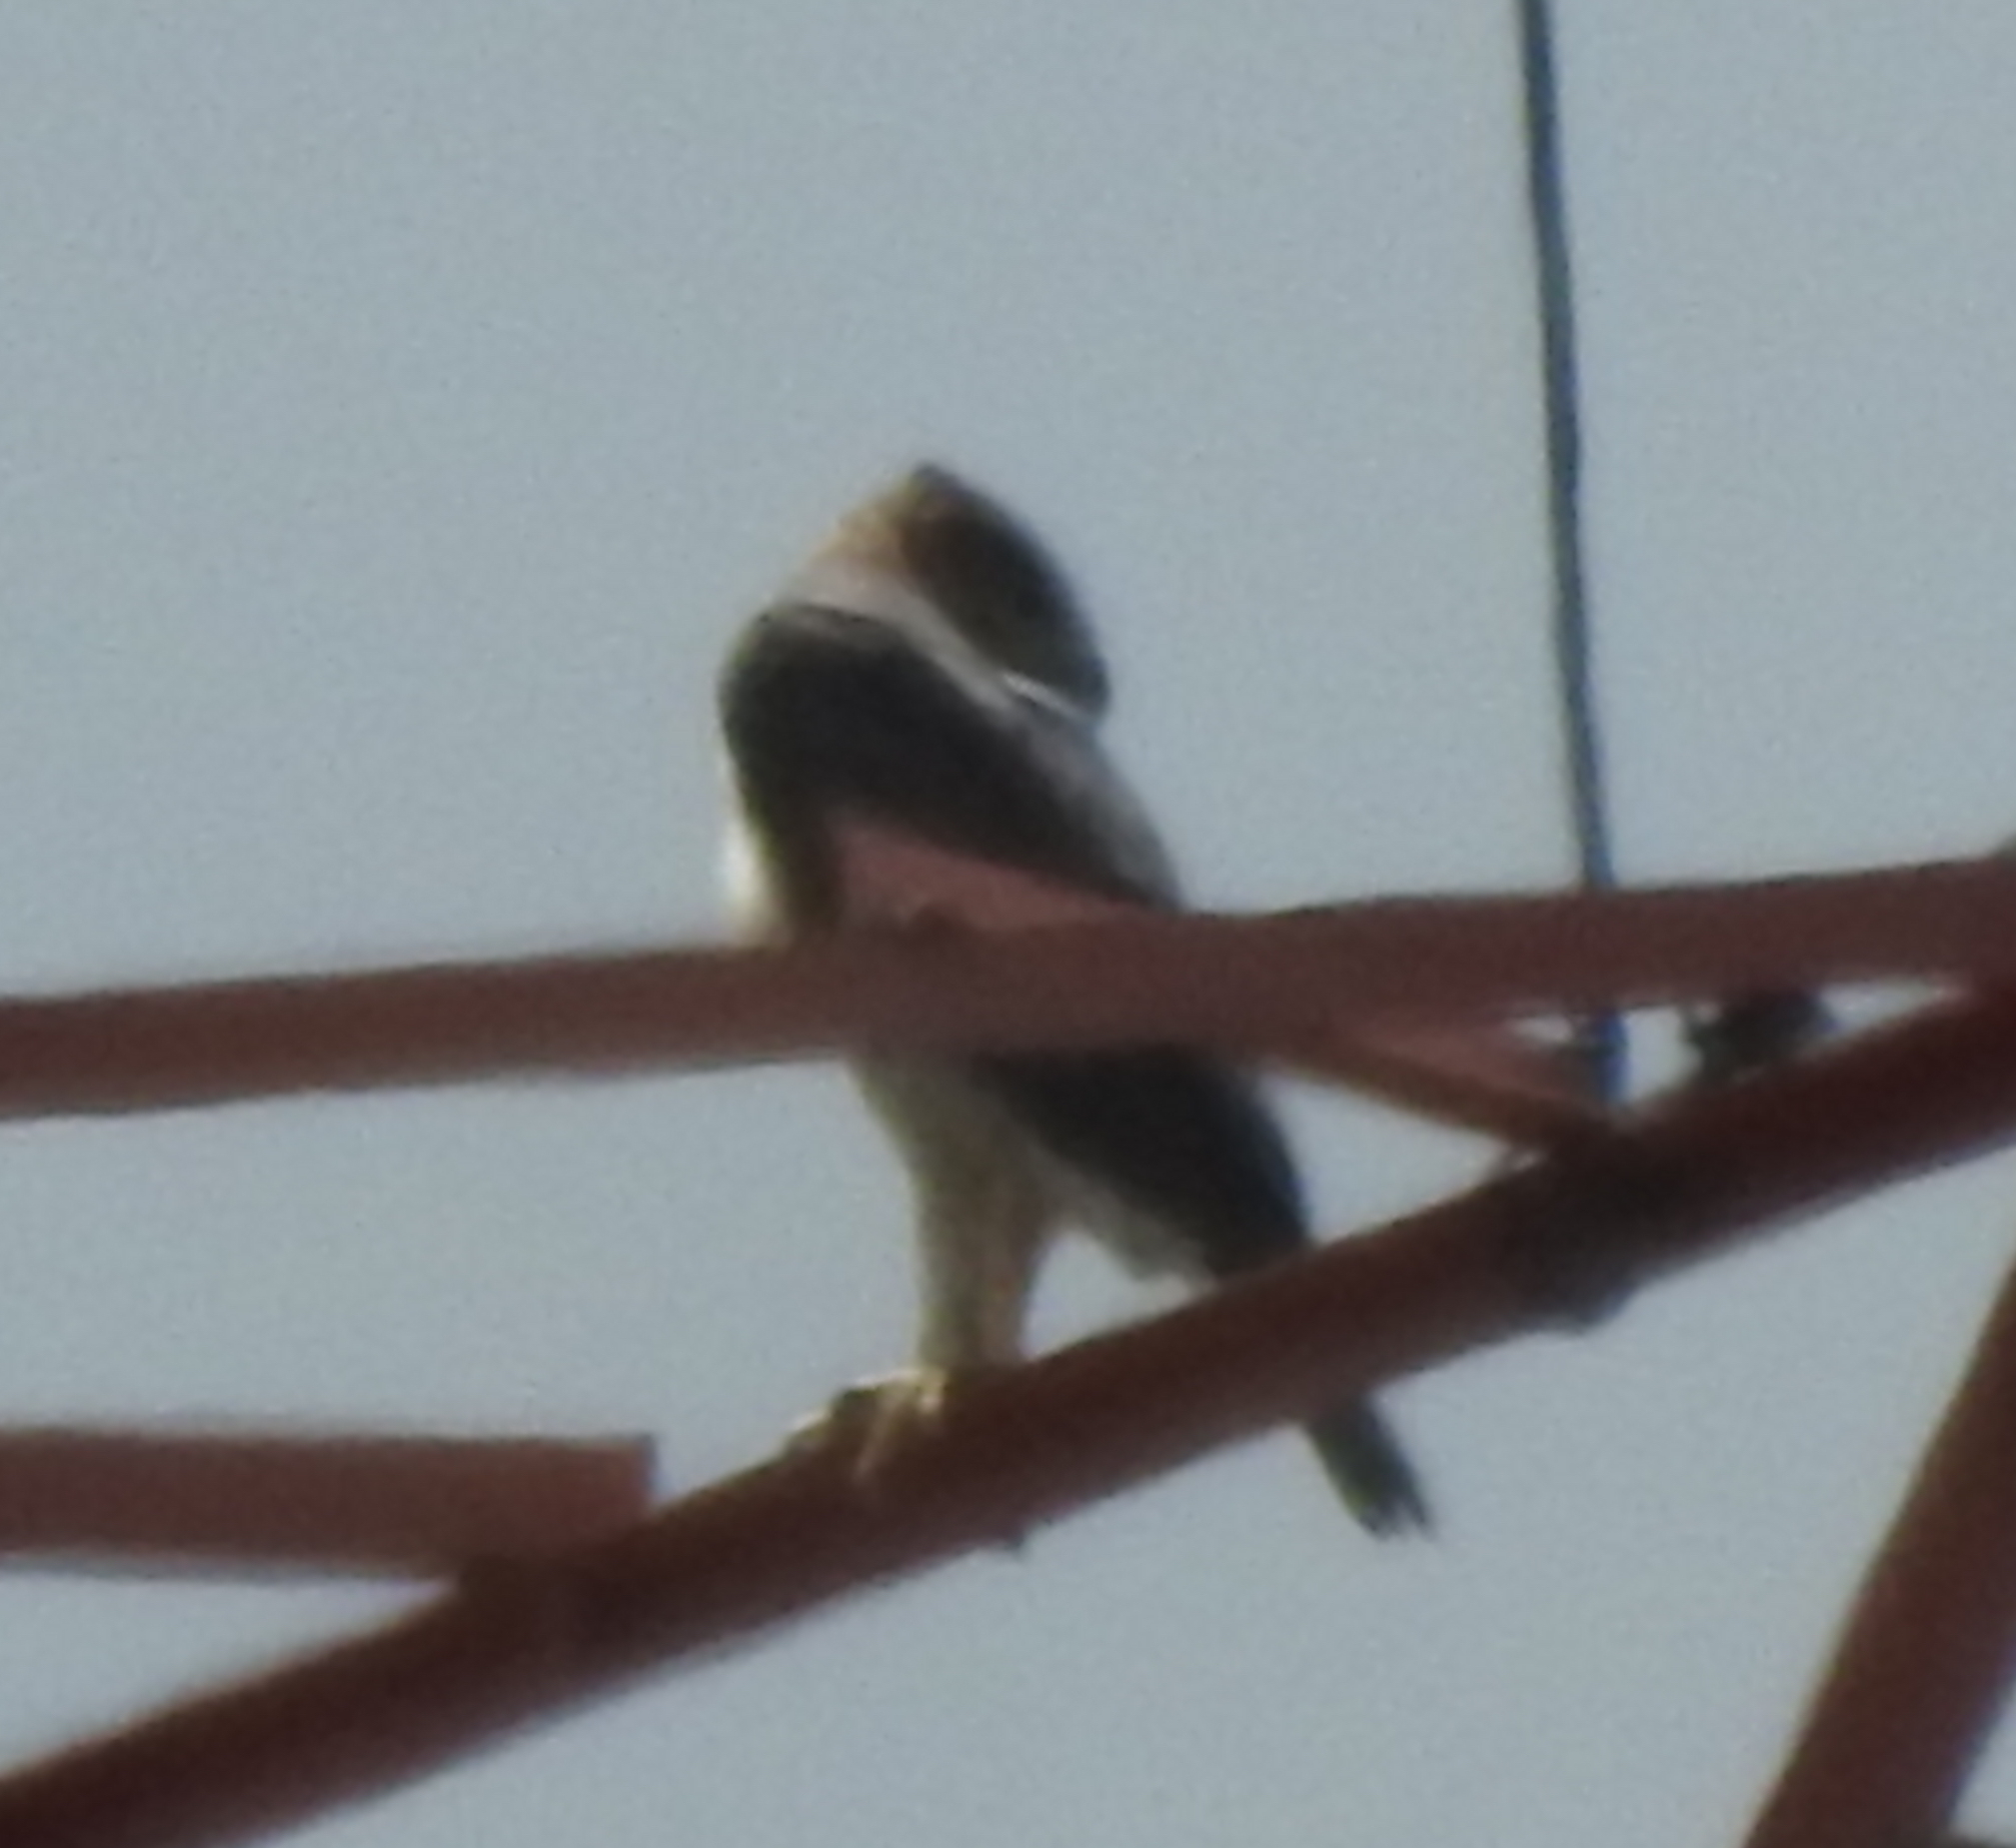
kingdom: Animalia
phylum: Chordata
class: Aves
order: Accipitriformes
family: Accipitridae
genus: Nisaetus
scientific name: Nisaetus cirrhatus
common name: Changeable hawk-eagle
